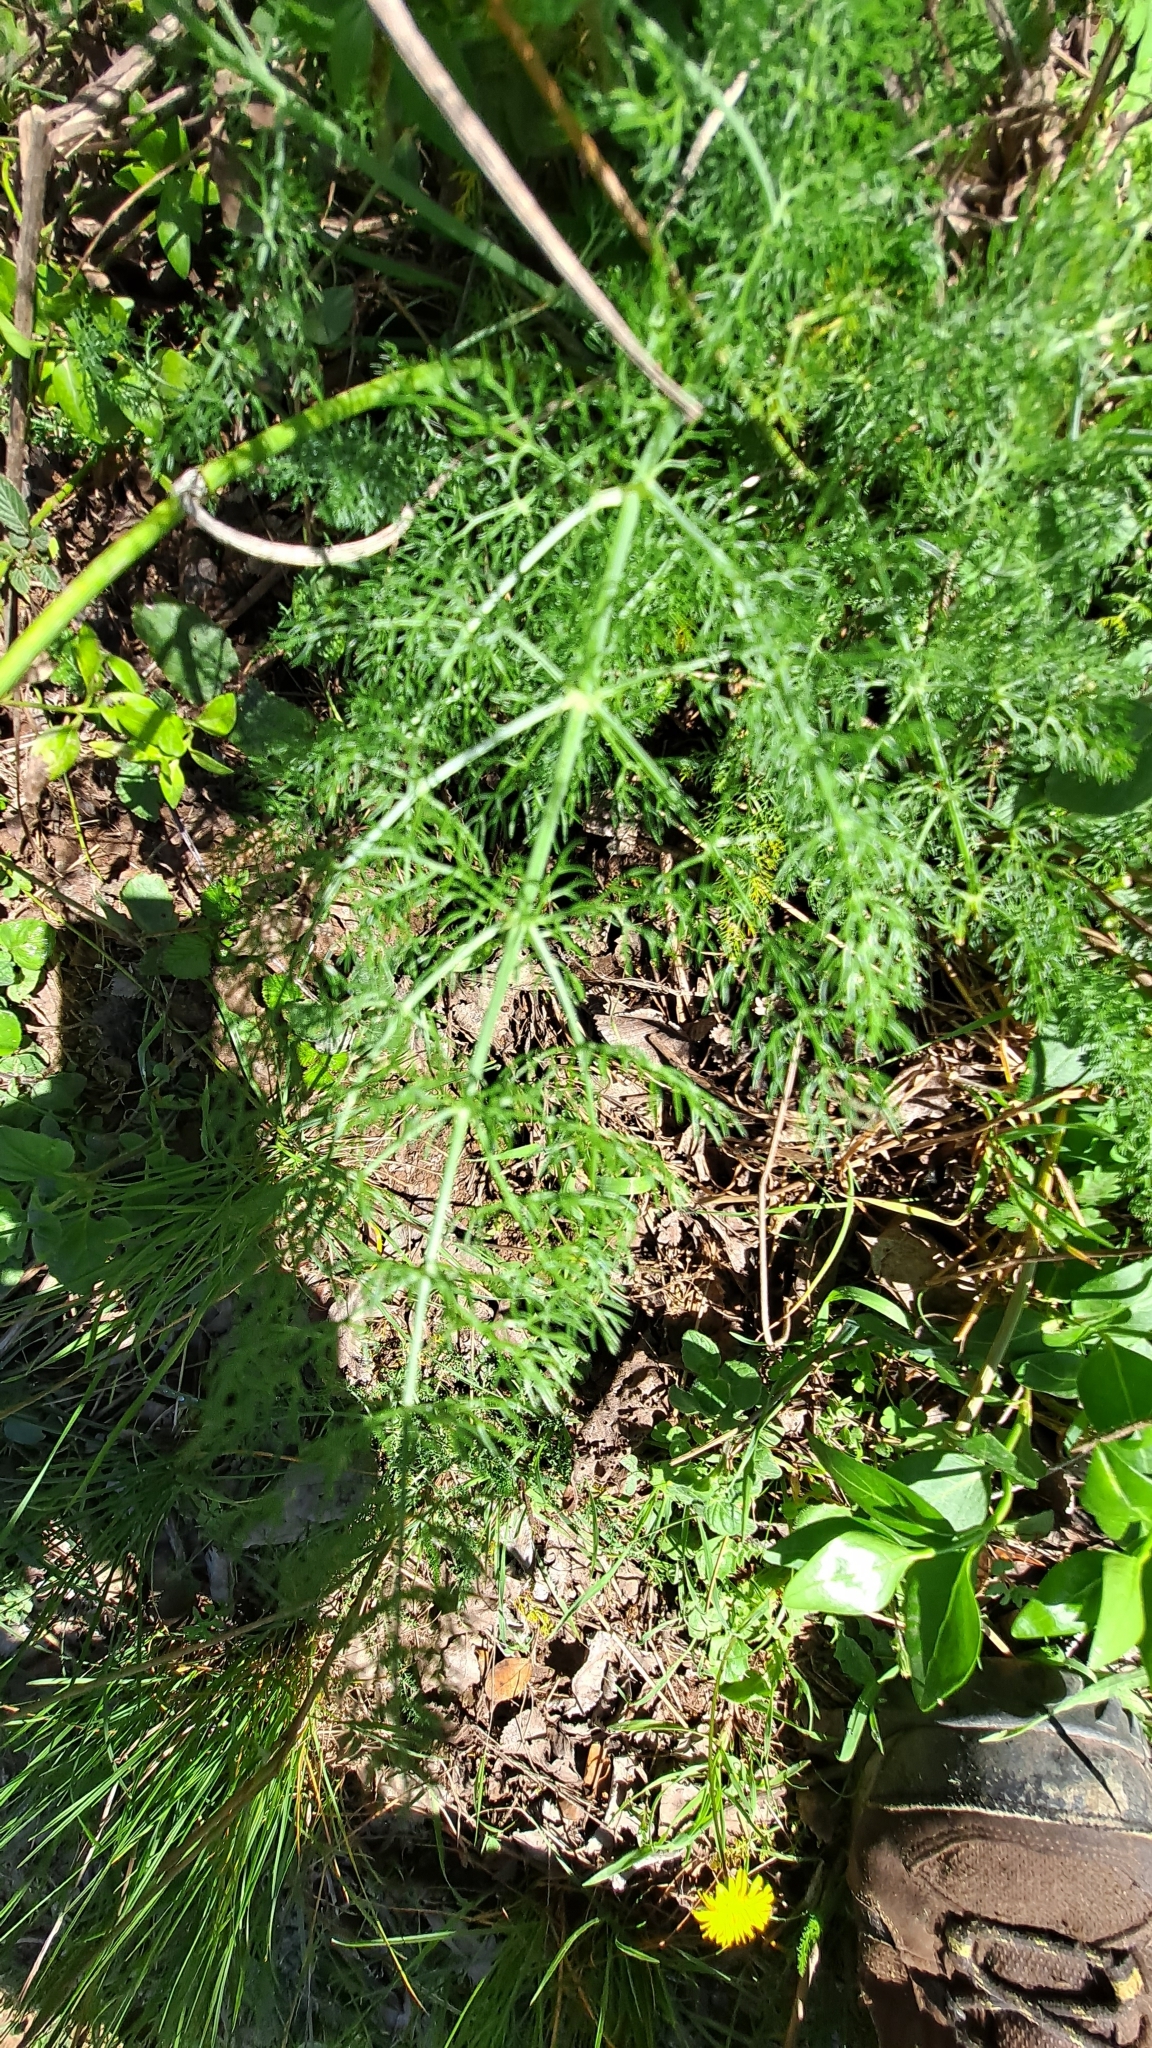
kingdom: Plantae
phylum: Tracheophyta
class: Magnoliopsida
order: Apiales
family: Apiaceae
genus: Foeniculum
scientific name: Foeniculum vulgare
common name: Fennel
